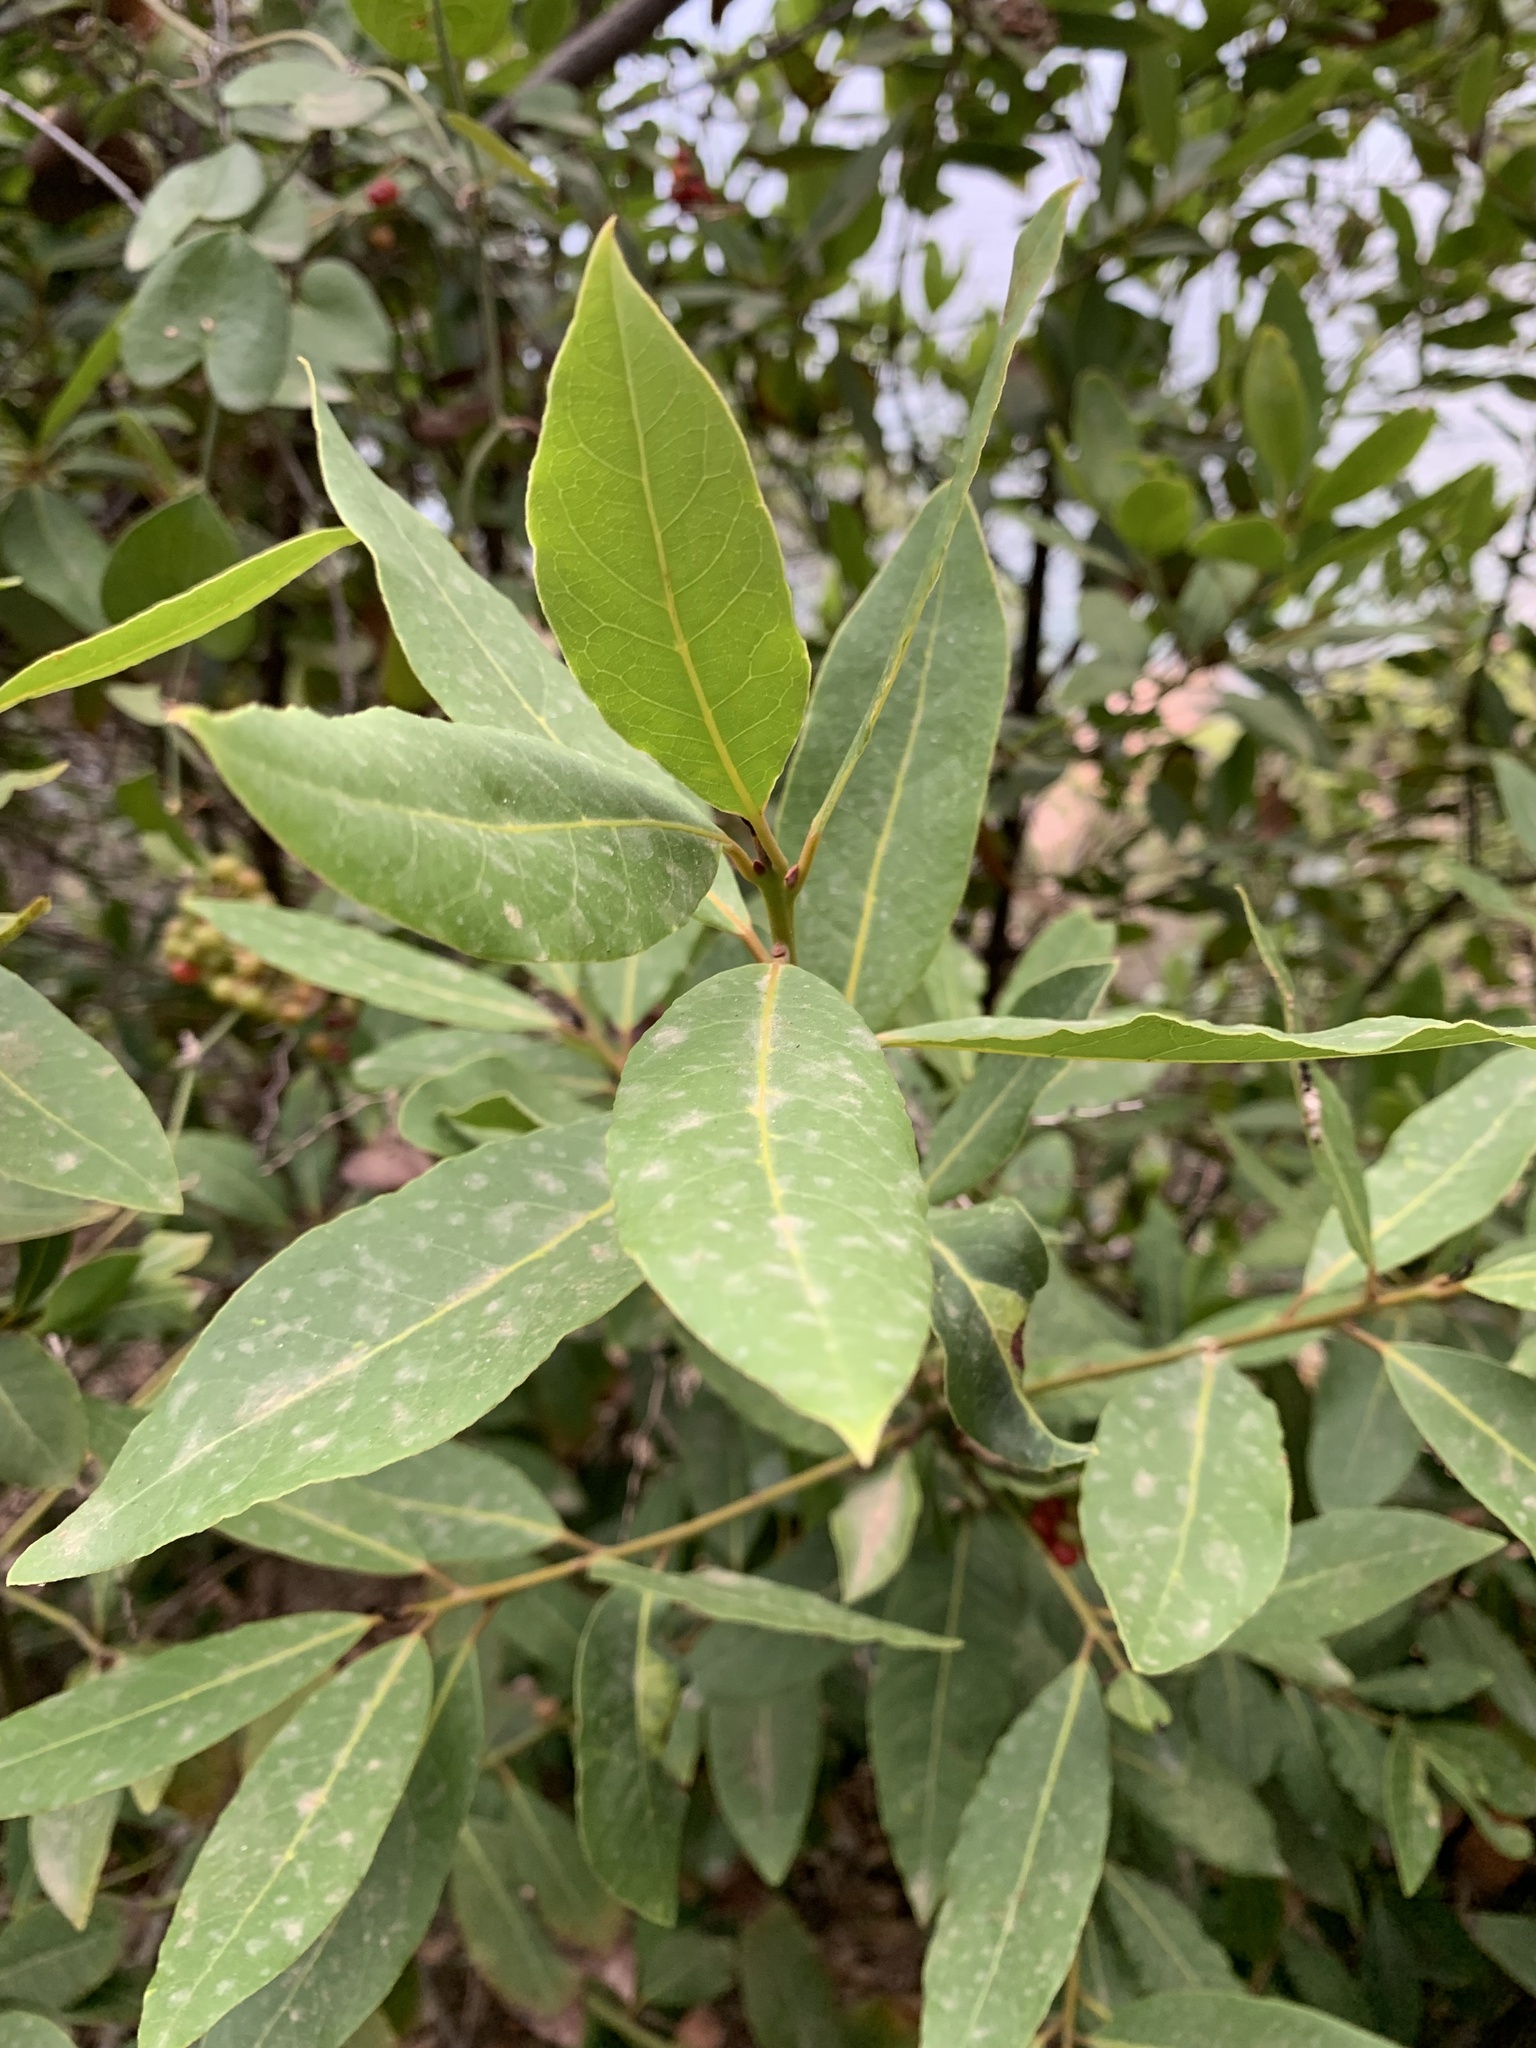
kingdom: Plantae
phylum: Tracheophyta
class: Magnoliopsida
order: Laurales
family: Lauraceae
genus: Laurus
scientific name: Laurus nobilis
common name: Bay
